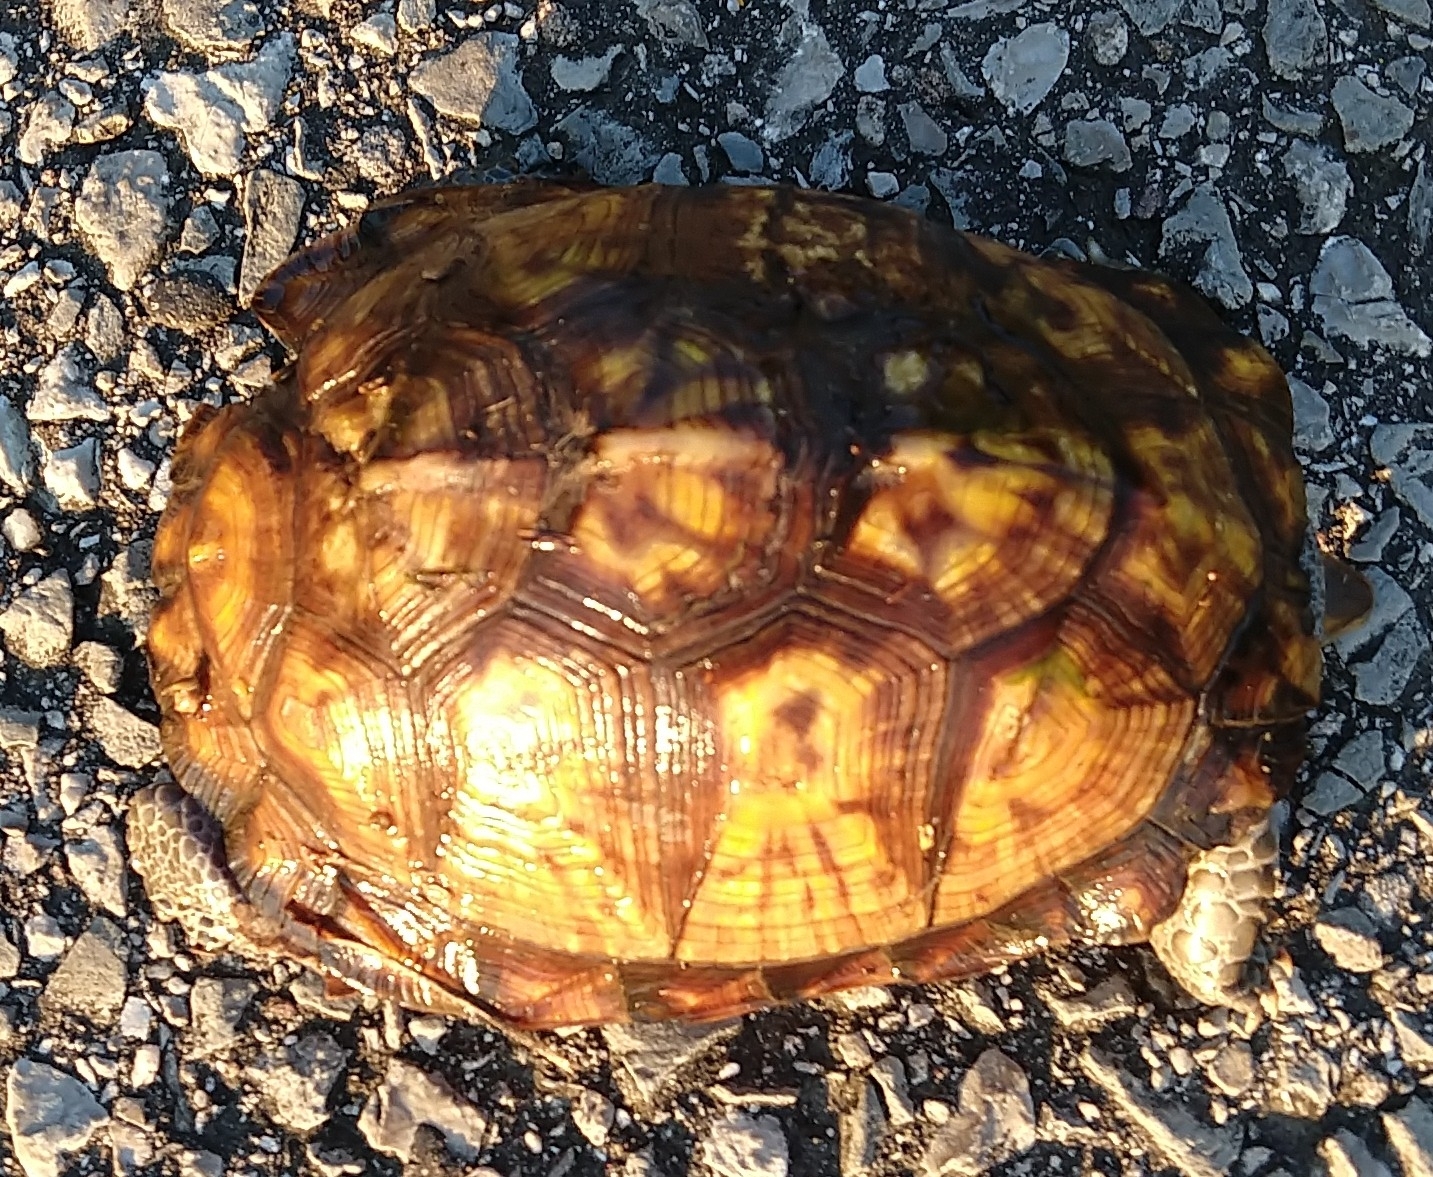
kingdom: Animalia
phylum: Chordata
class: Testudines
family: Emydidae
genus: Terrapene
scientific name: Terrapene carolina
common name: Common box turtle
